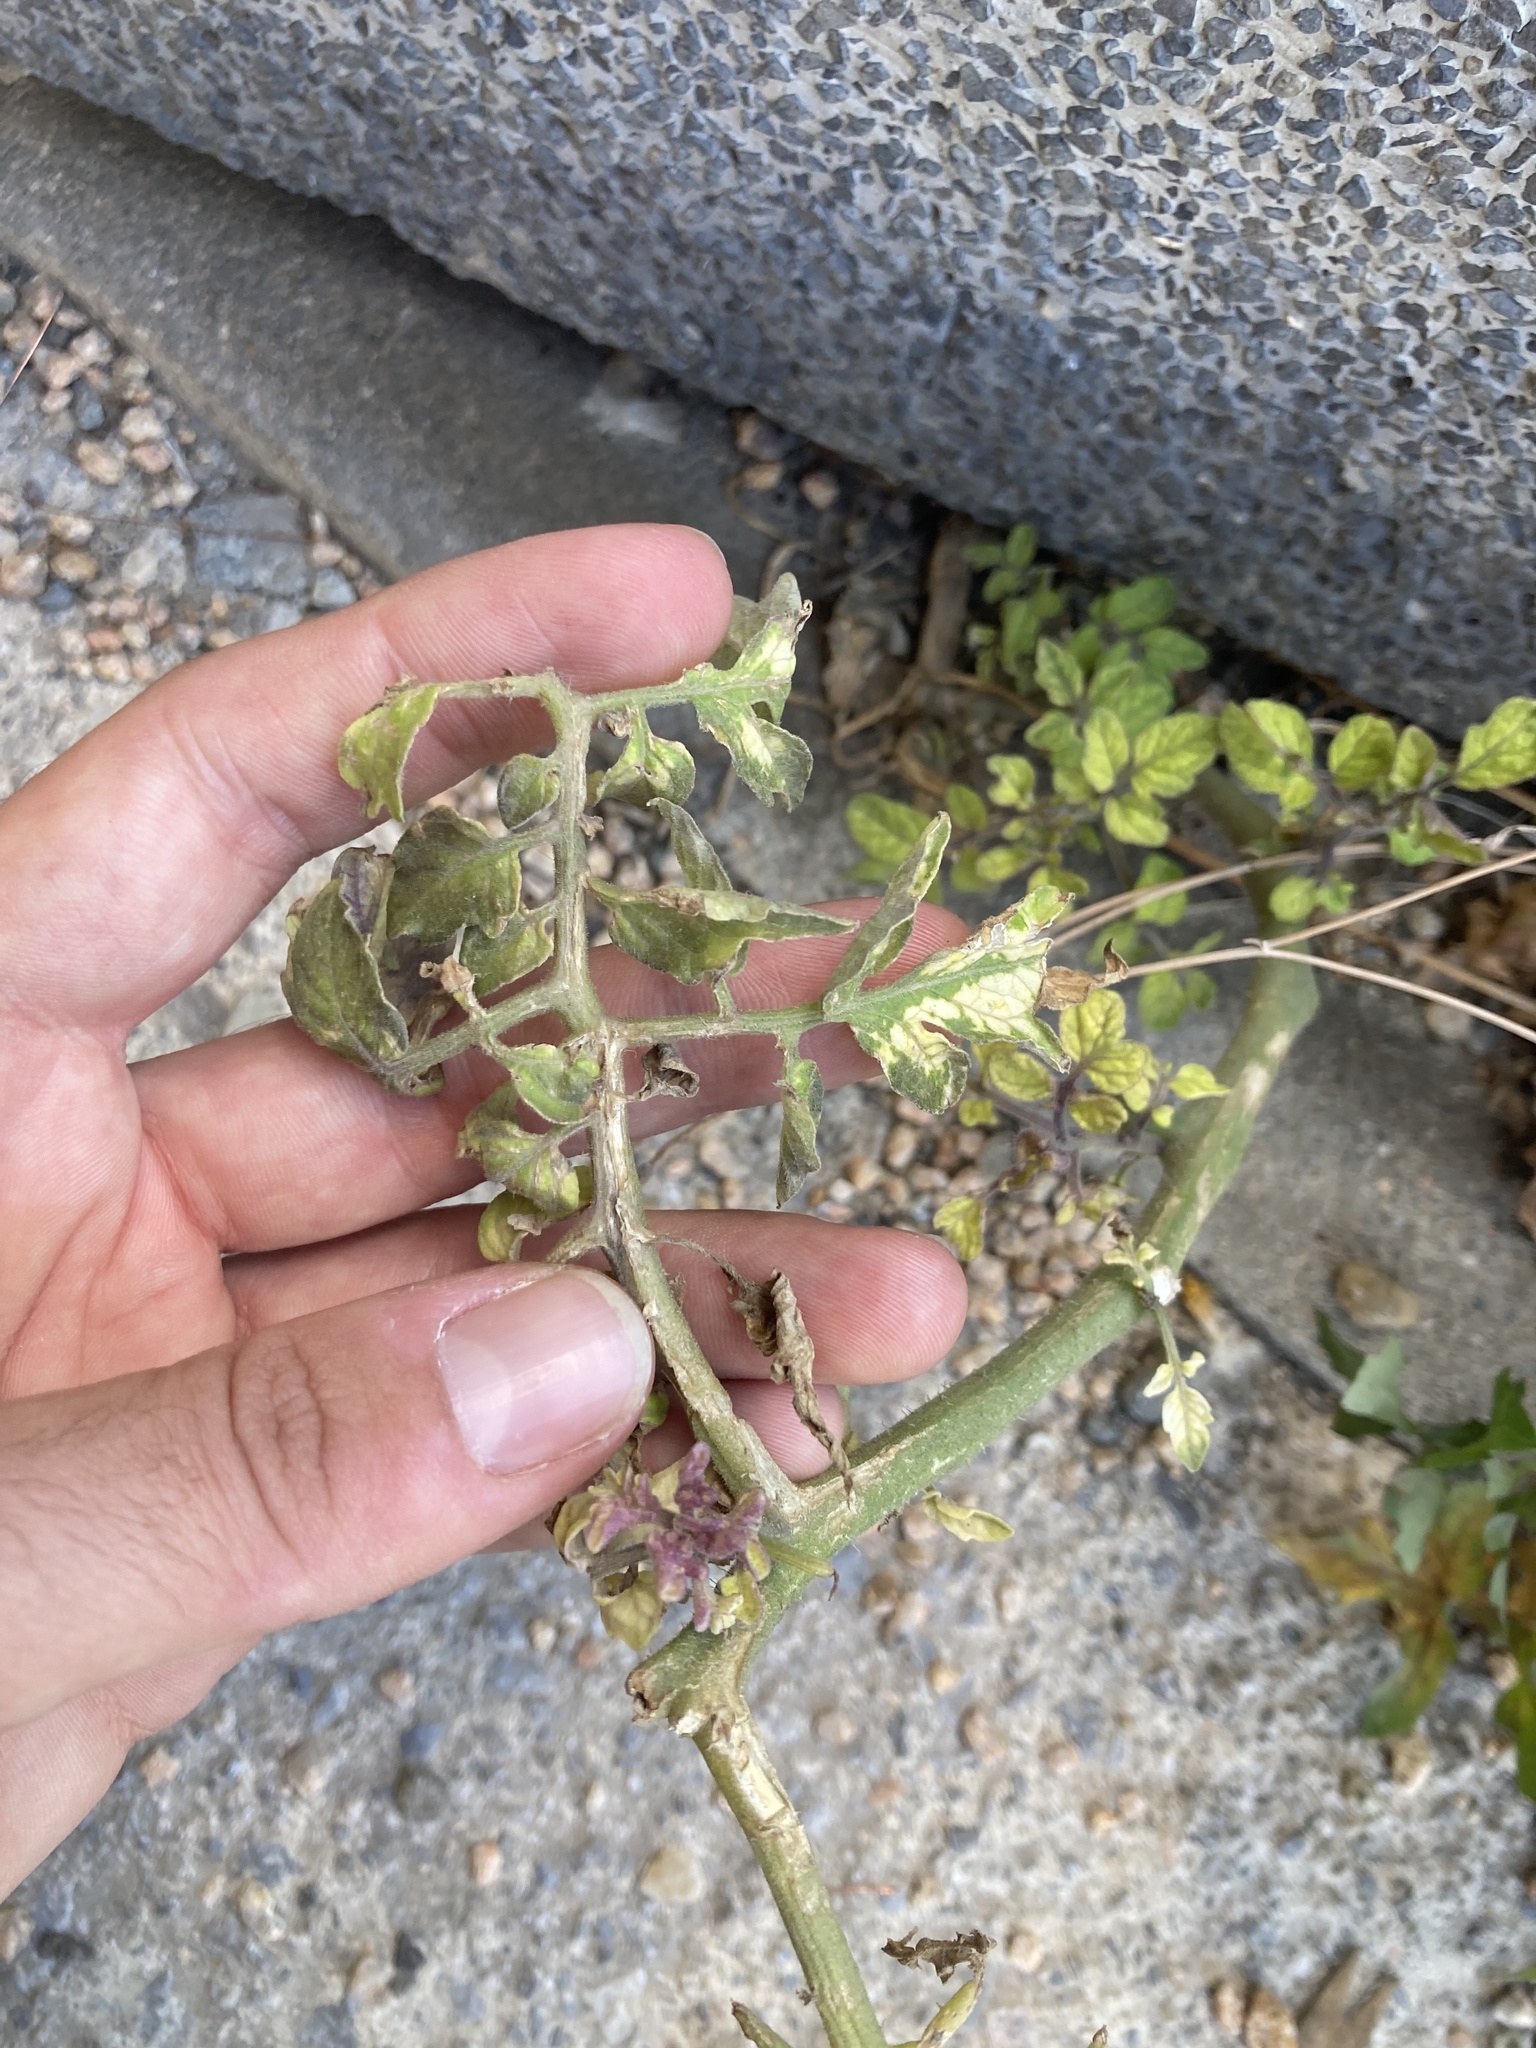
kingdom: Plantae
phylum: Tracheophyta
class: Magnoliopsida
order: Solanales
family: Solanaceae
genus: Solanum
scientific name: Solanum lycopersicum
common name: Garden tomato
